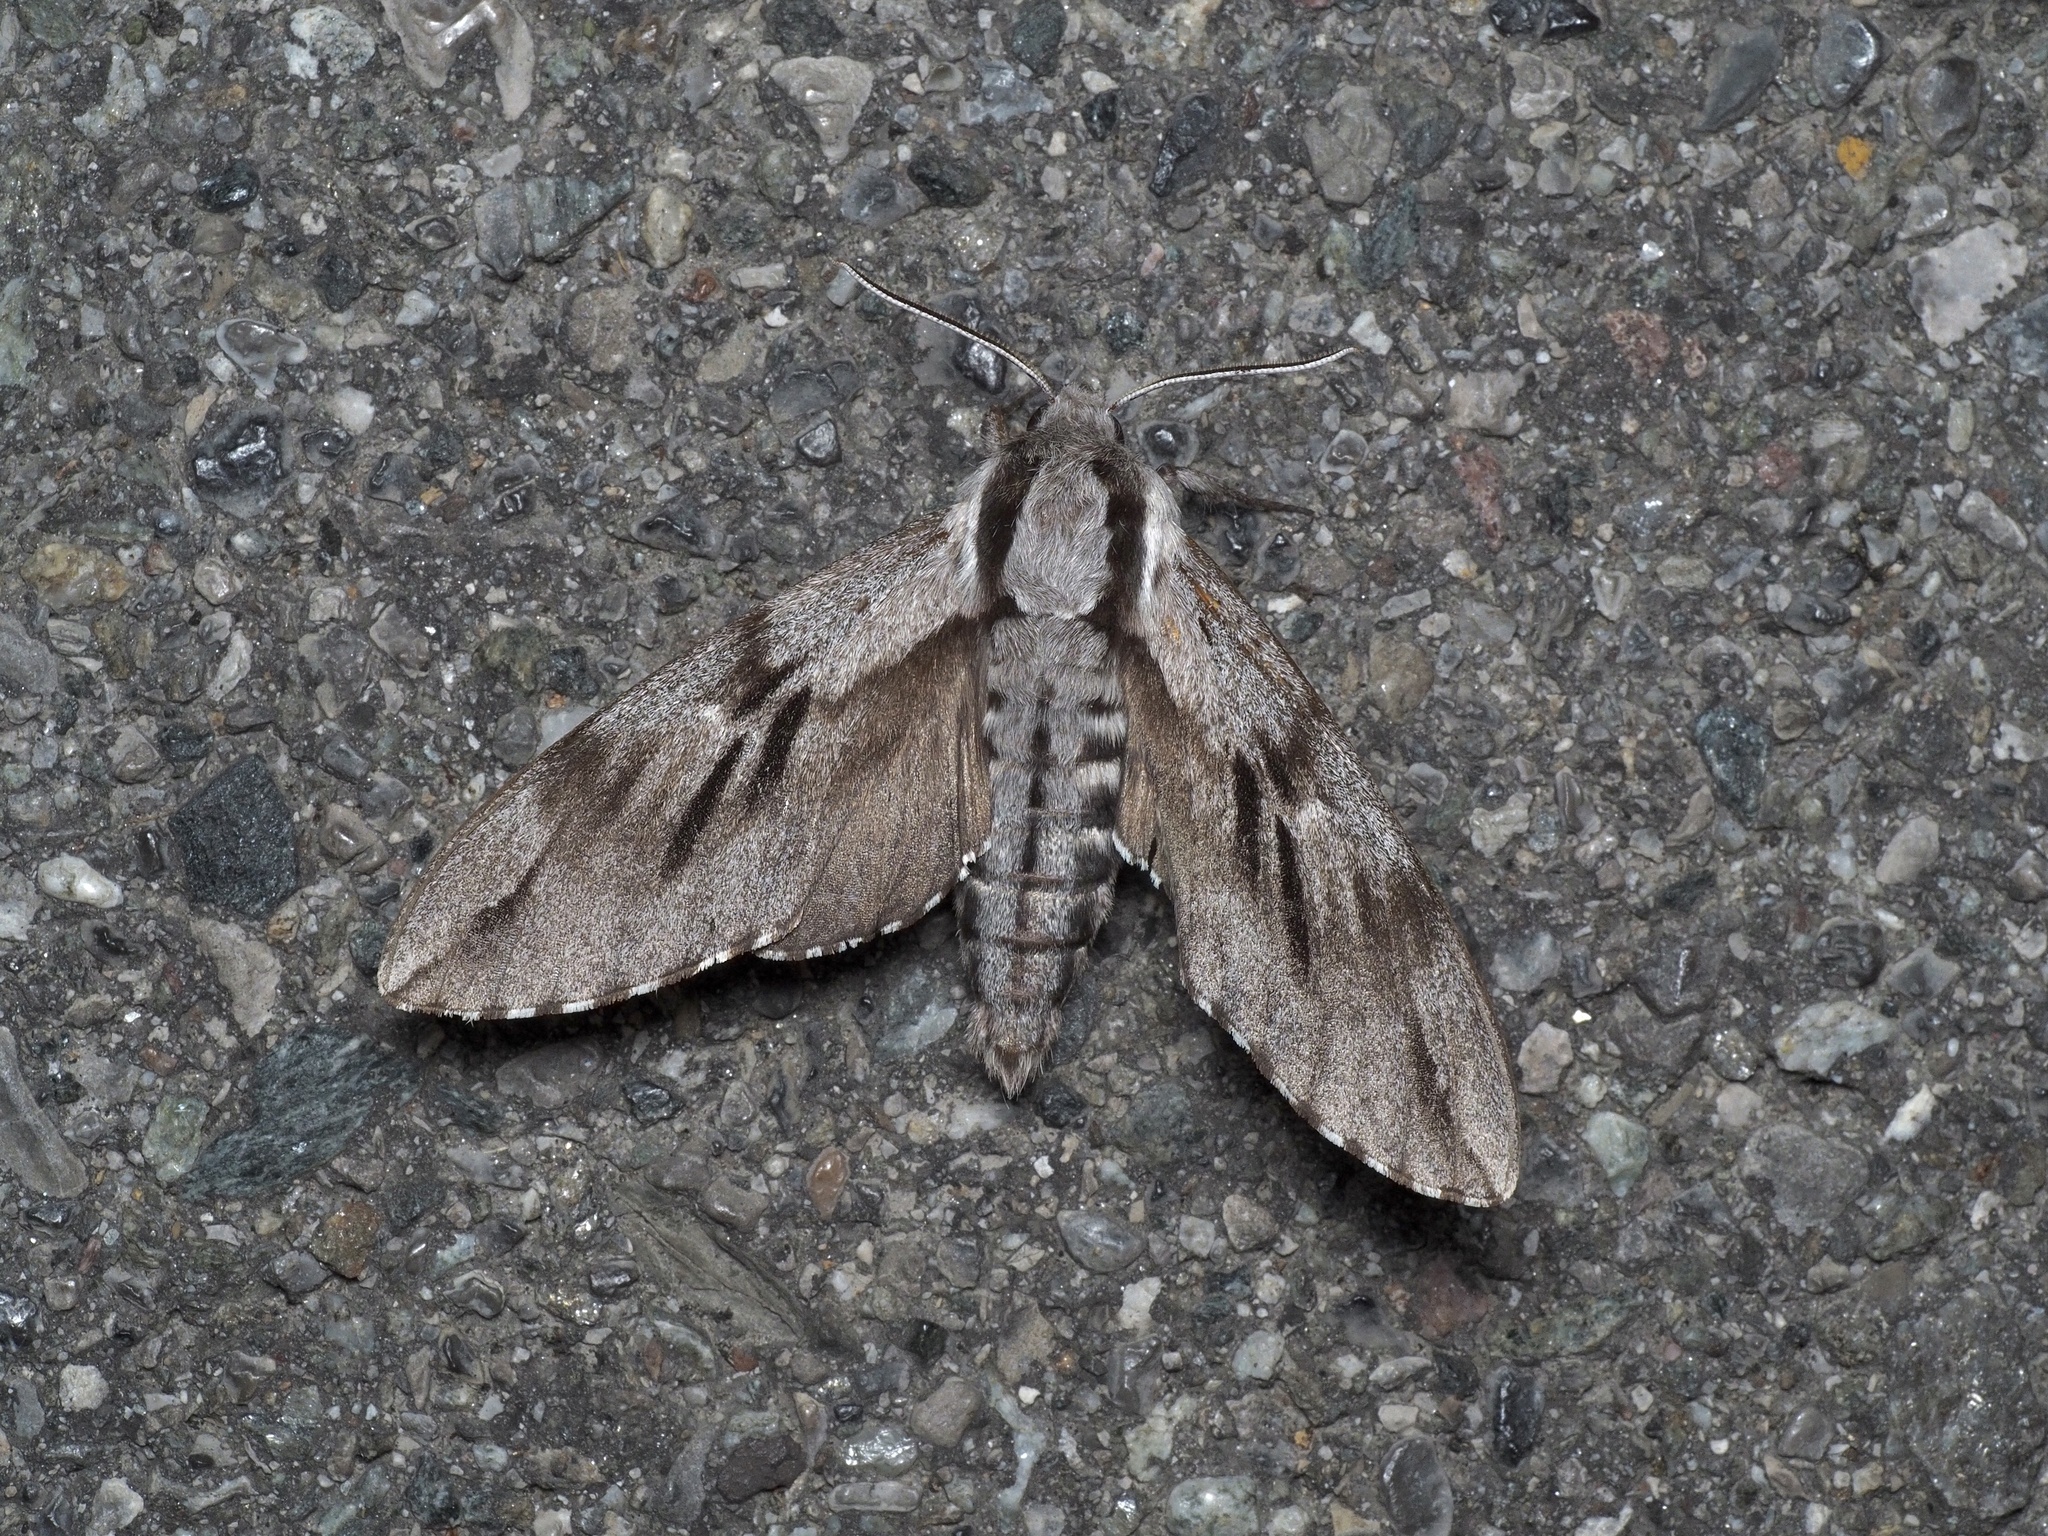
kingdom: Animalia
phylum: Arthropoda
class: Insecta
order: Lepidoptera
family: Sphingidae
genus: Sphinx
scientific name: Sphinx pinastri
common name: Pine hawk-moth
